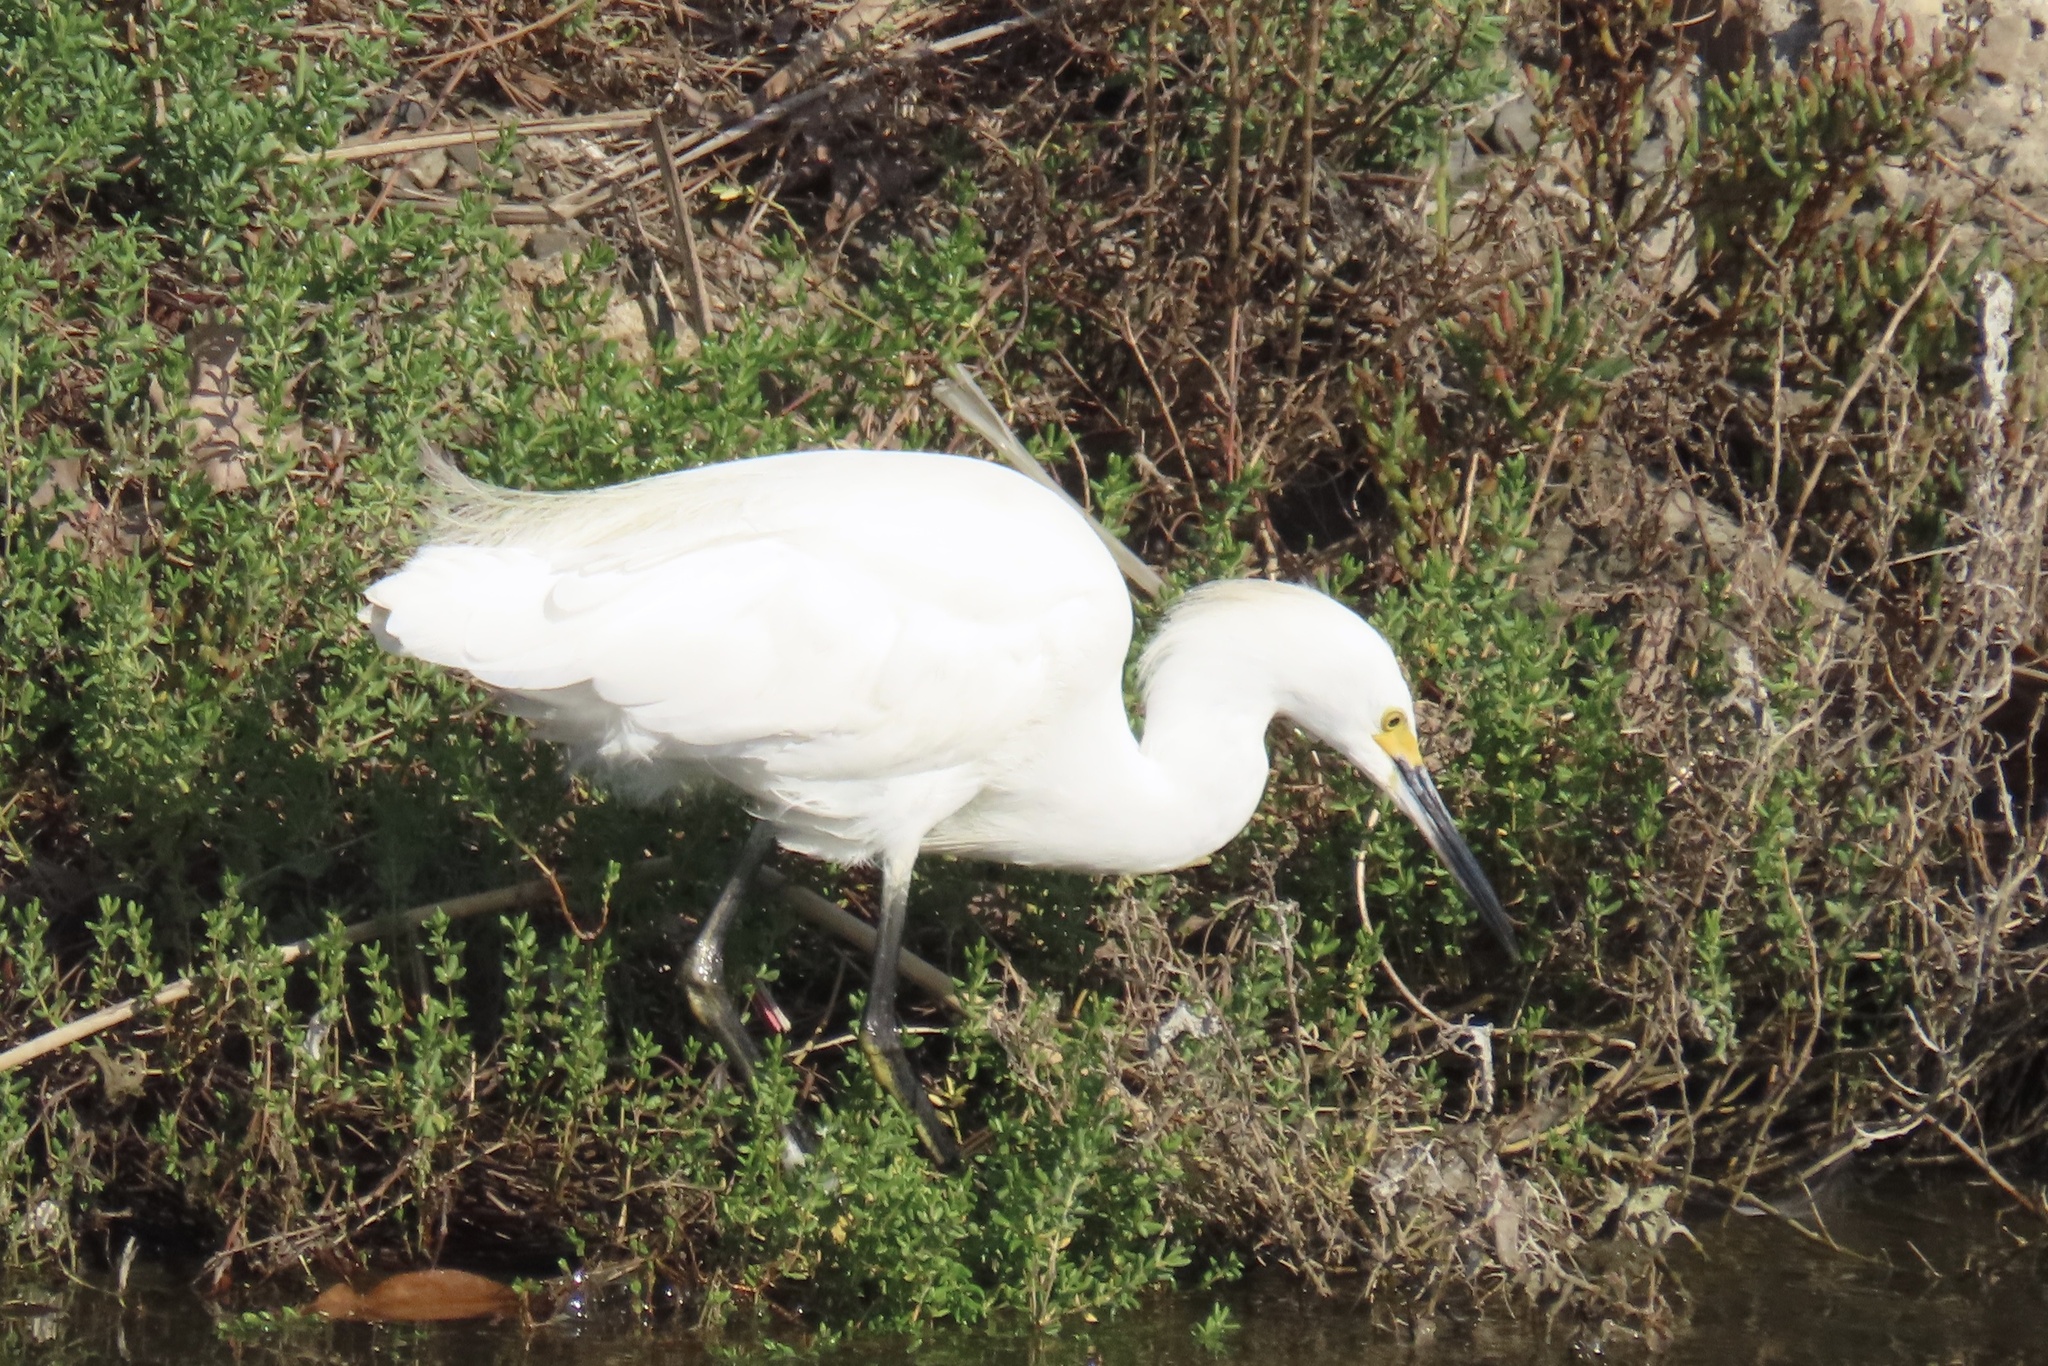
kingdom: Animalia
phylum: Chordata
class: Aves
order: Pelecaniformes
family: Ardeidae
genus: Egretta
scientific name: Egretta thula
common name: Snowy egret
